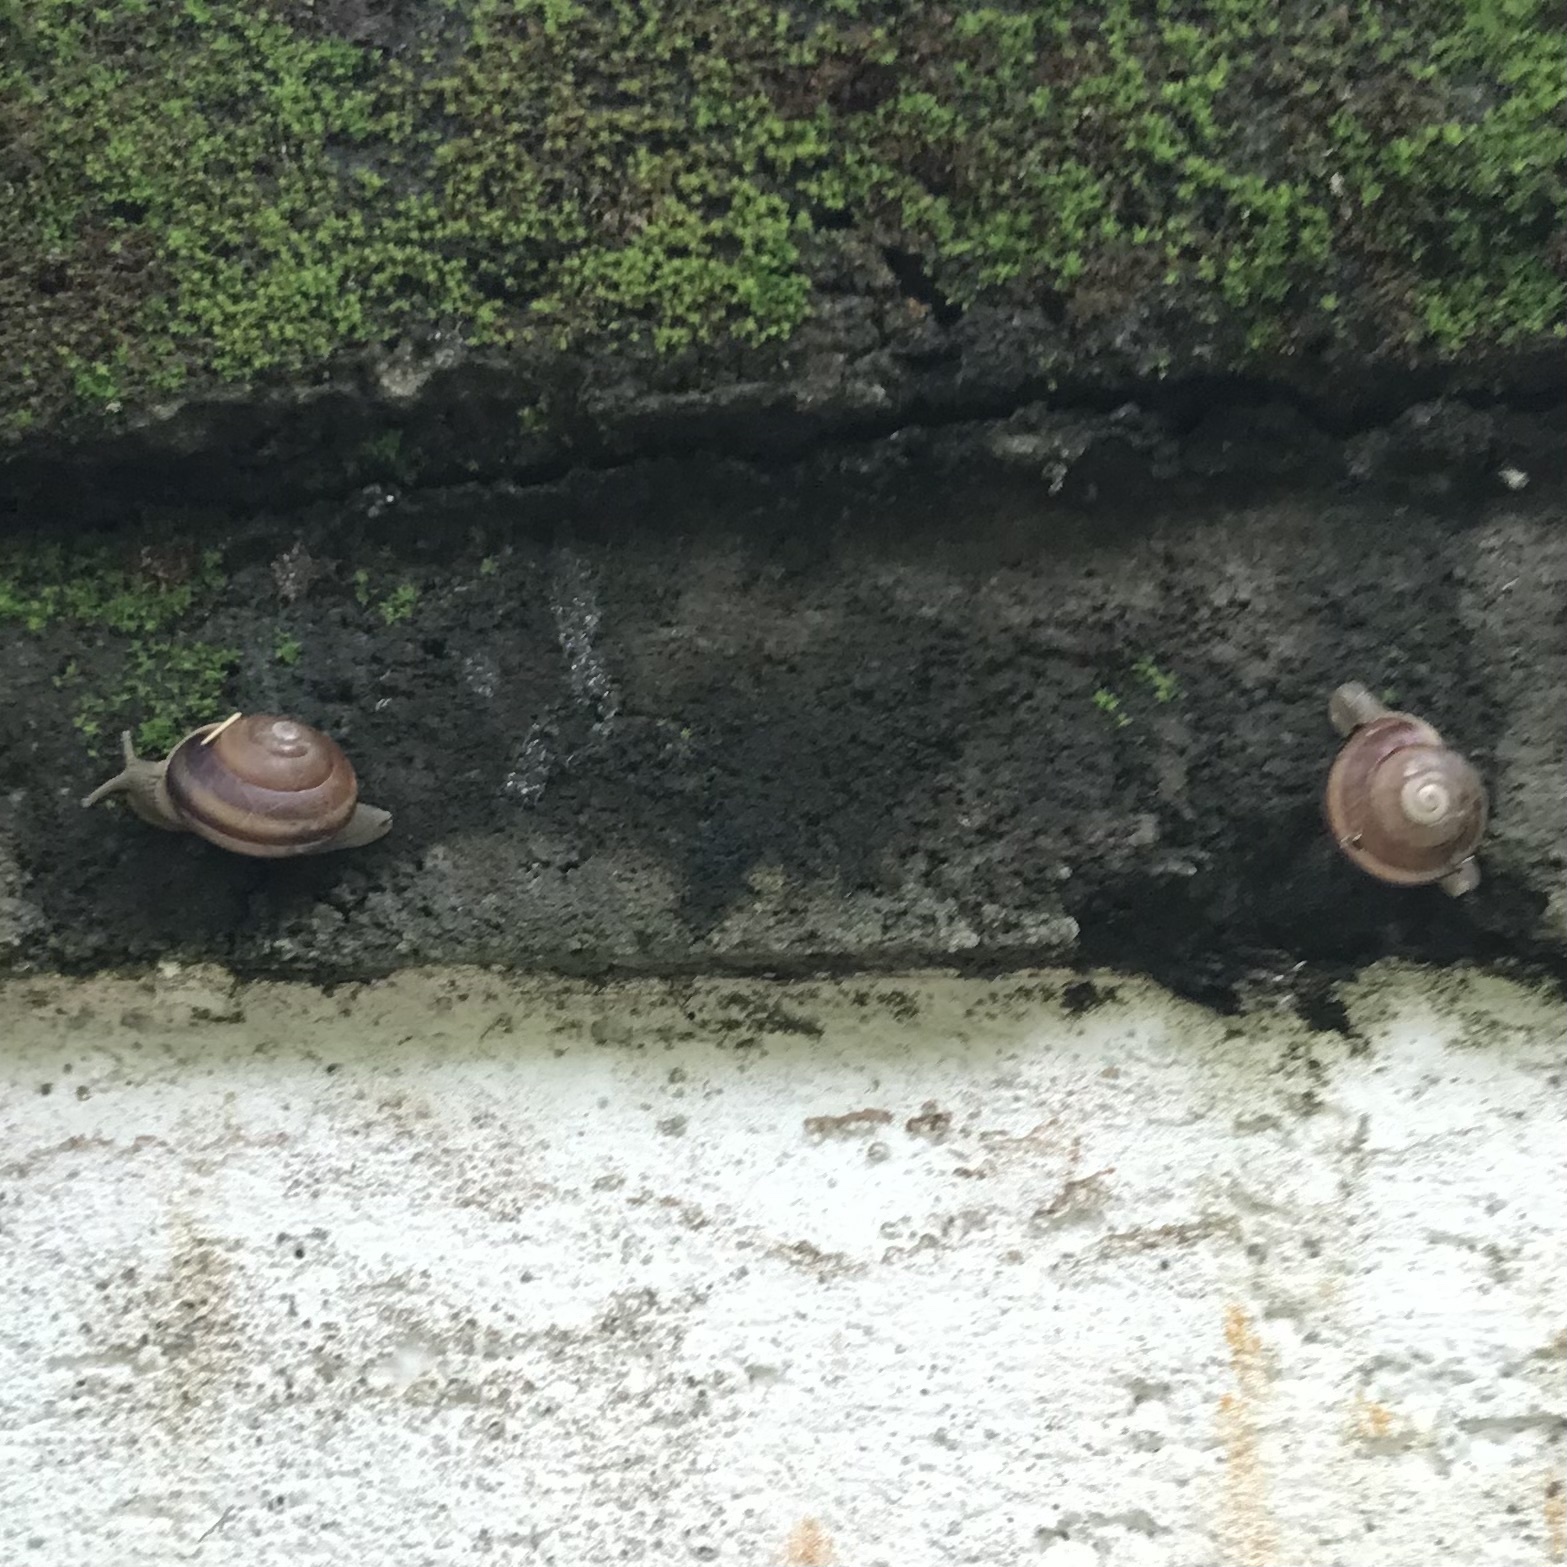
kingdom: Animalia
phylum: Mollusca
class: Gastropoda
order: Stylommatophora
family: Camaenidae
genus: Bradybaena
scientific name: Bradybaena similaris
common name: Asian trampsnail
